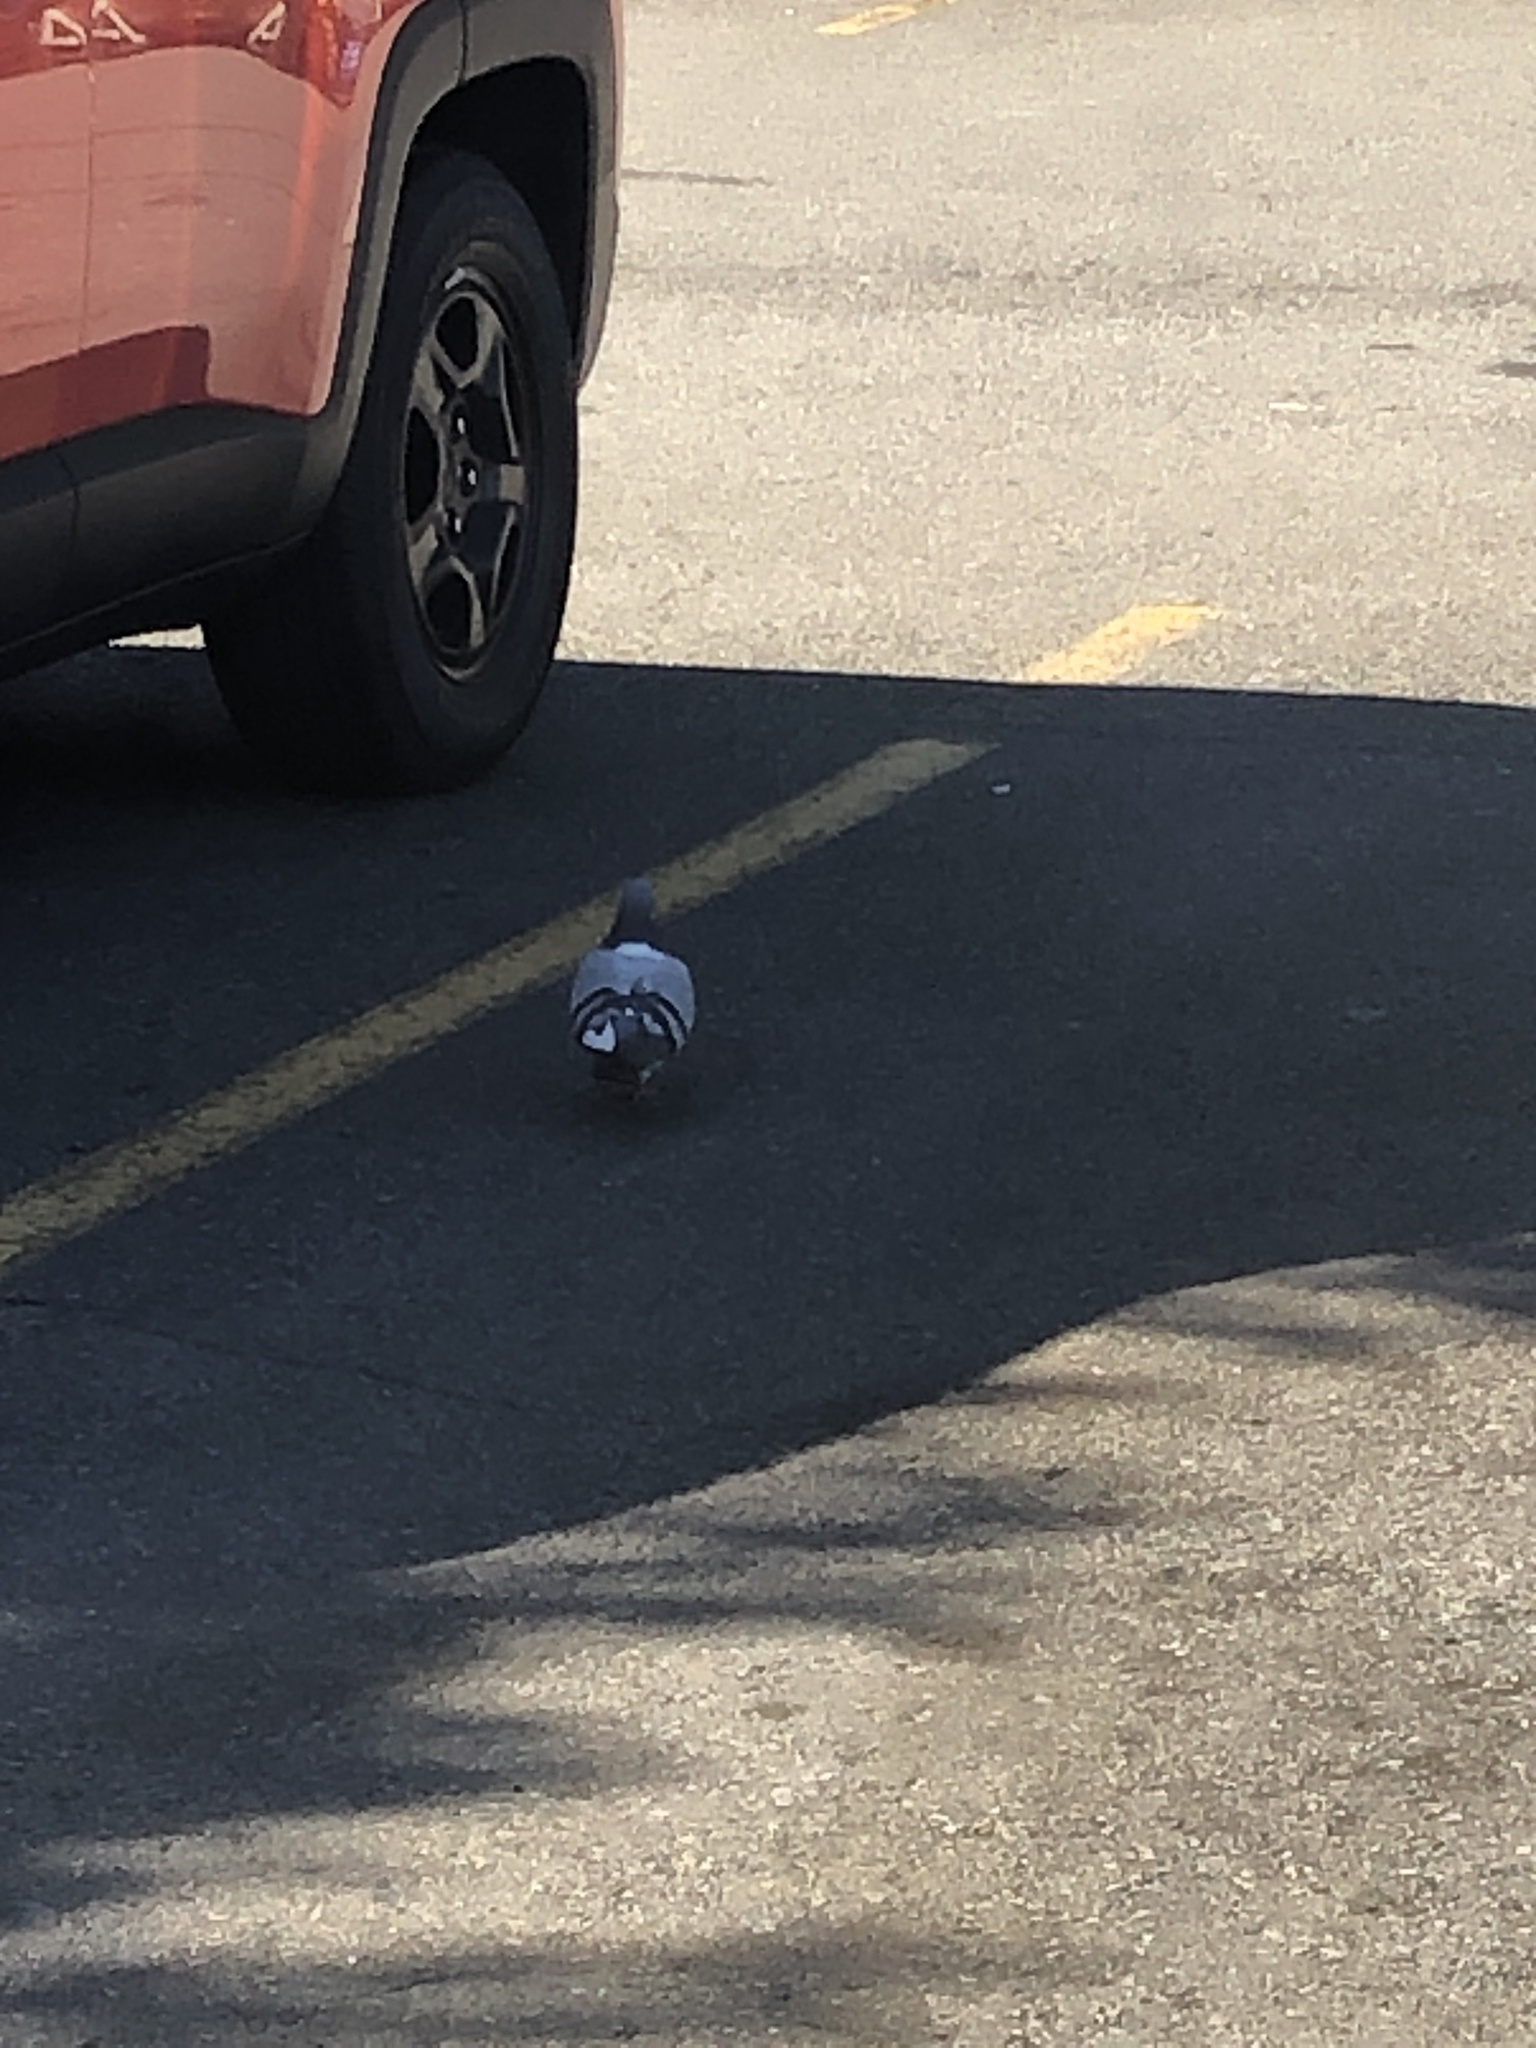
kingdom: Animalia
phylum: Chordata
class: Aves
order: Columbiformes
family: Columbidae
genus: Columba
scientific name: Columba livia
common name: Rock pigeon
